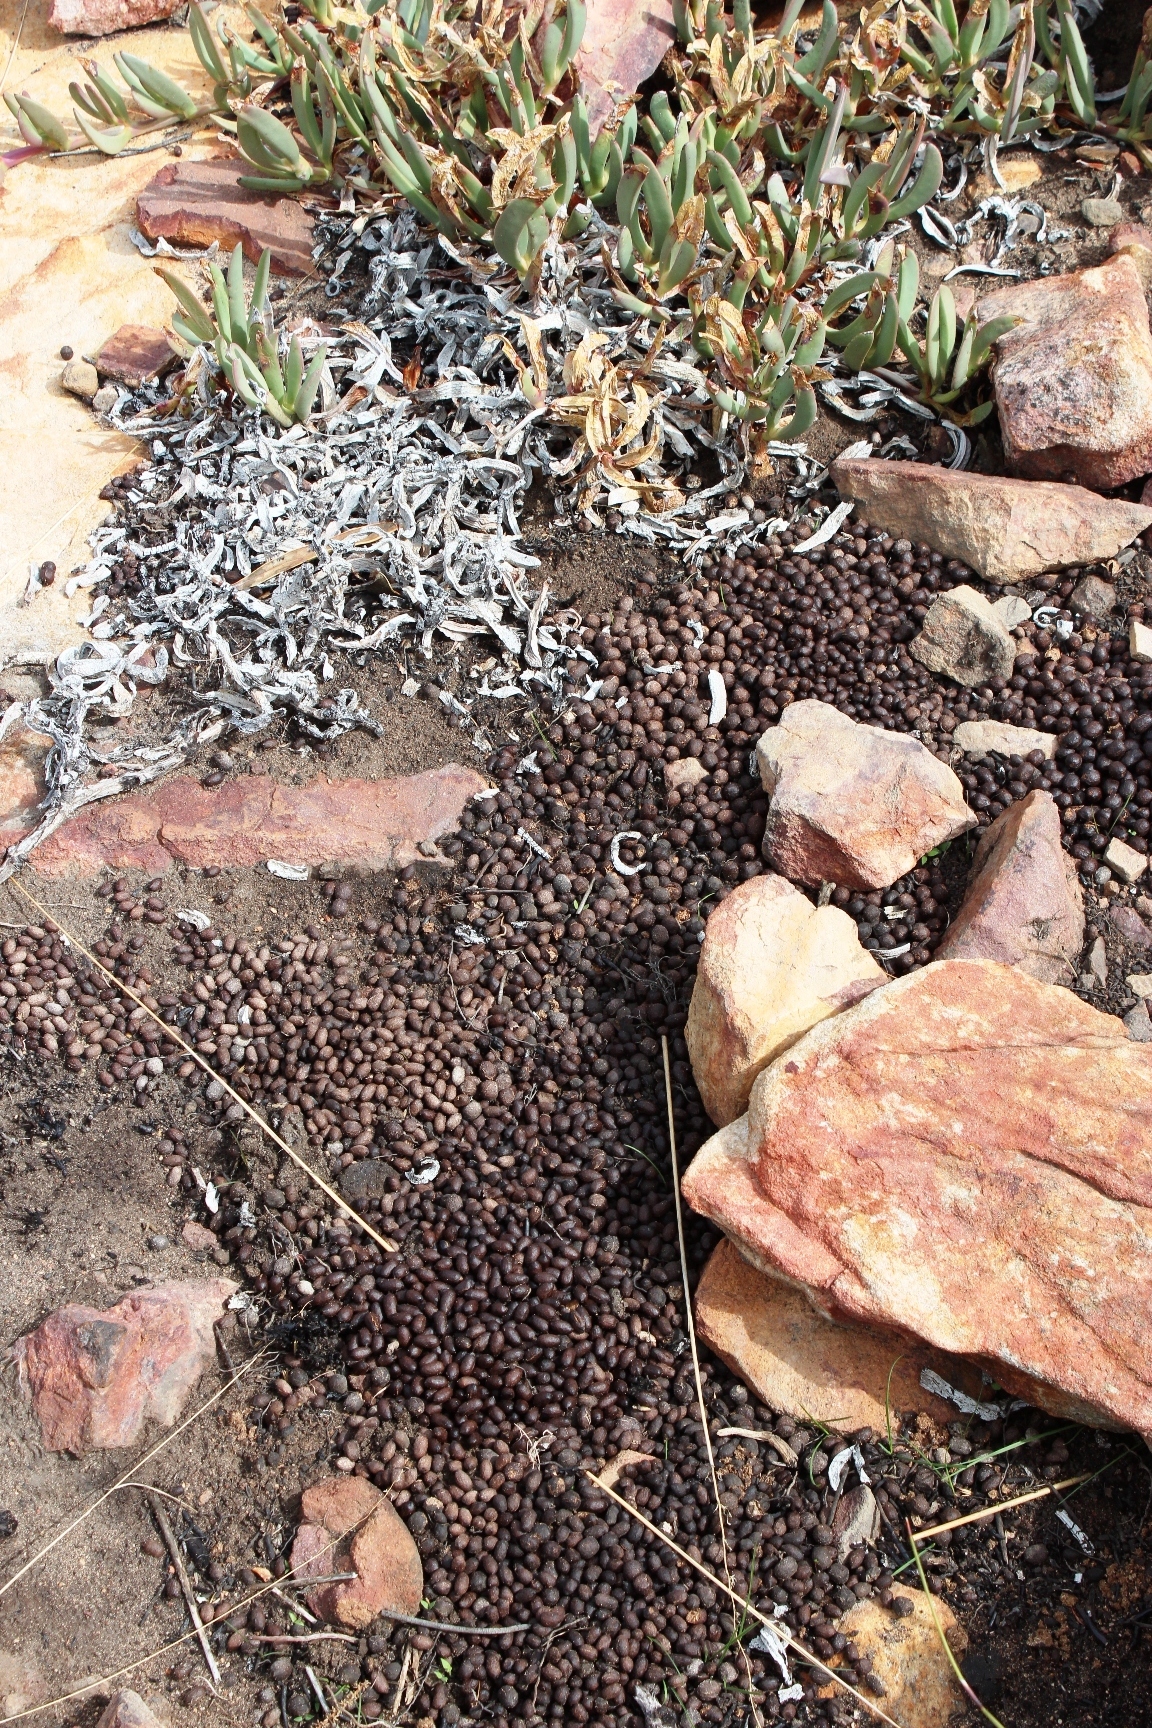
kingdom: Animalia
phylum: Chordata
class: Mammalia
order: Artiodactyla
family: Bovidae
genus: Oreotragus
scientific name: Oreotragus oreotragus
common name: Klipspringer
